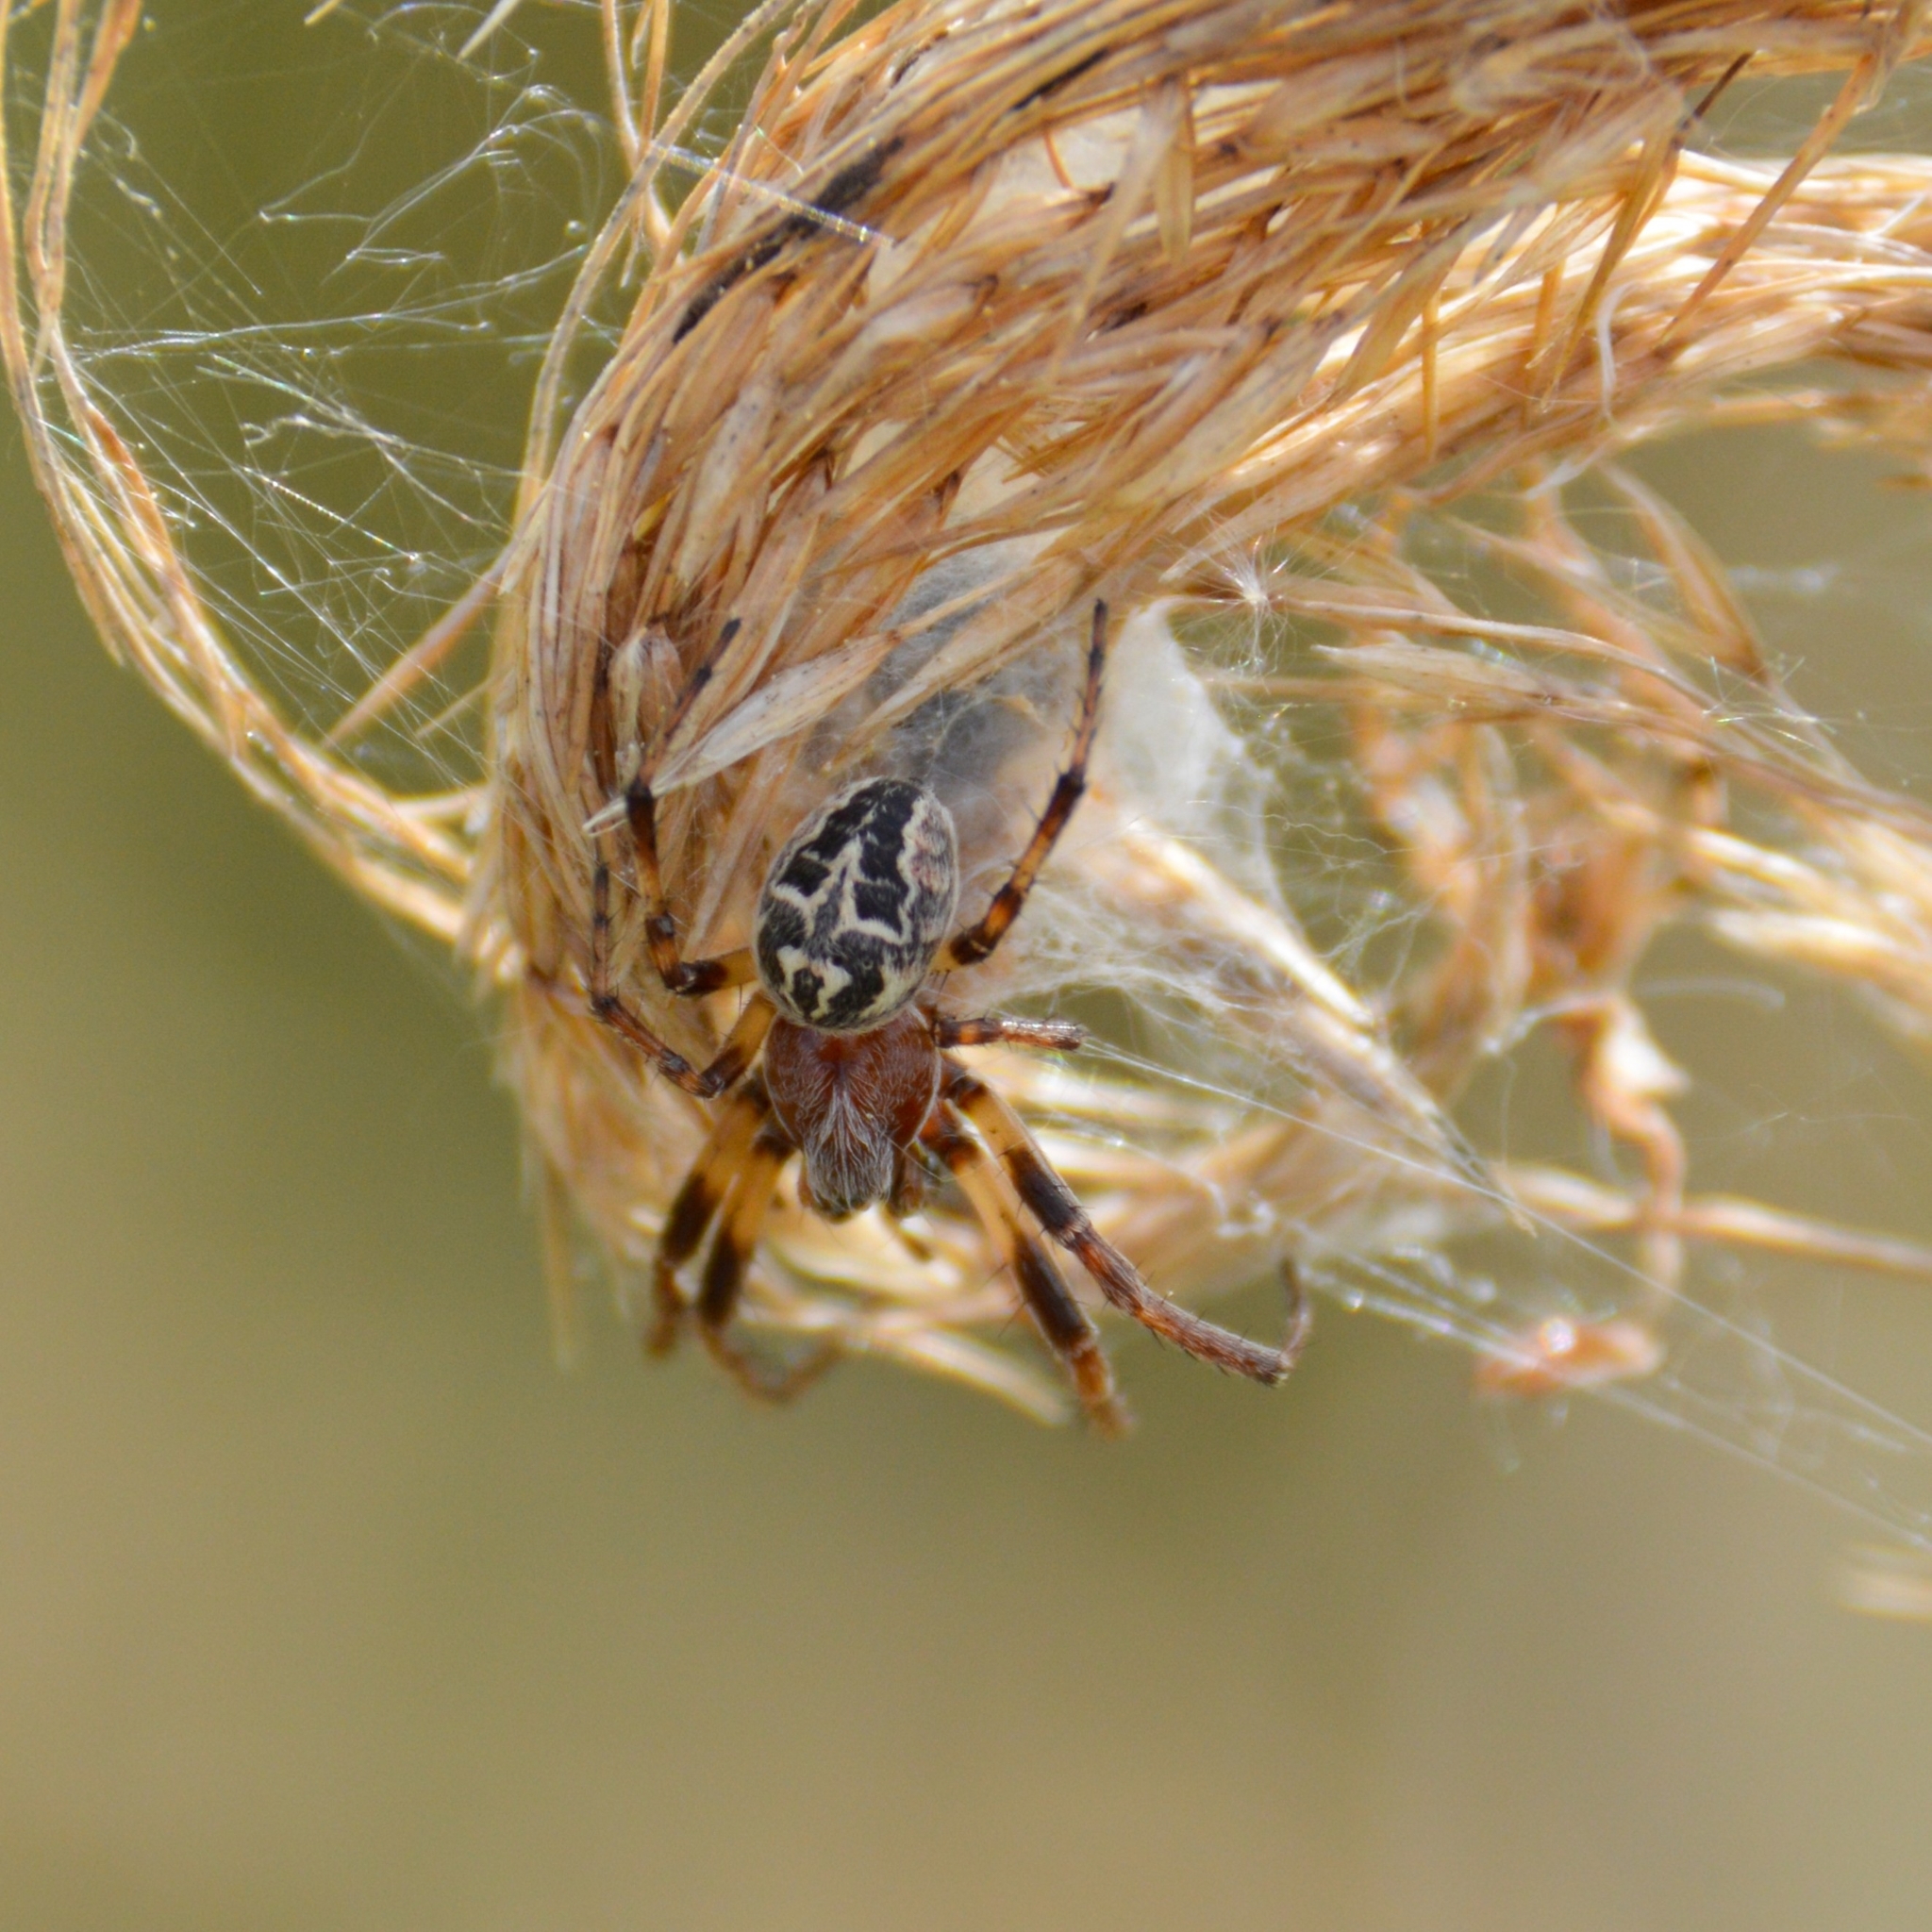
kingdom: Animalia
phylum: Arthropoda
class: Arachnida
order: Araneae
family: Araneidae
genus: Larinioides
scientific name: Larinioides
